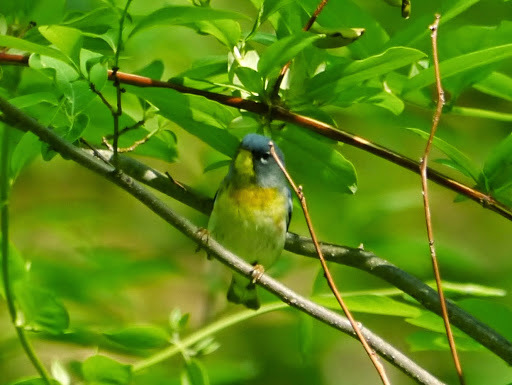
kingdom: Animalia
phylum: Chordata
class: Aves
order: Passeriformes
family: Parulidae
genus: Setophaga
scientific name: Setophaga americana
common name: Northern parula
